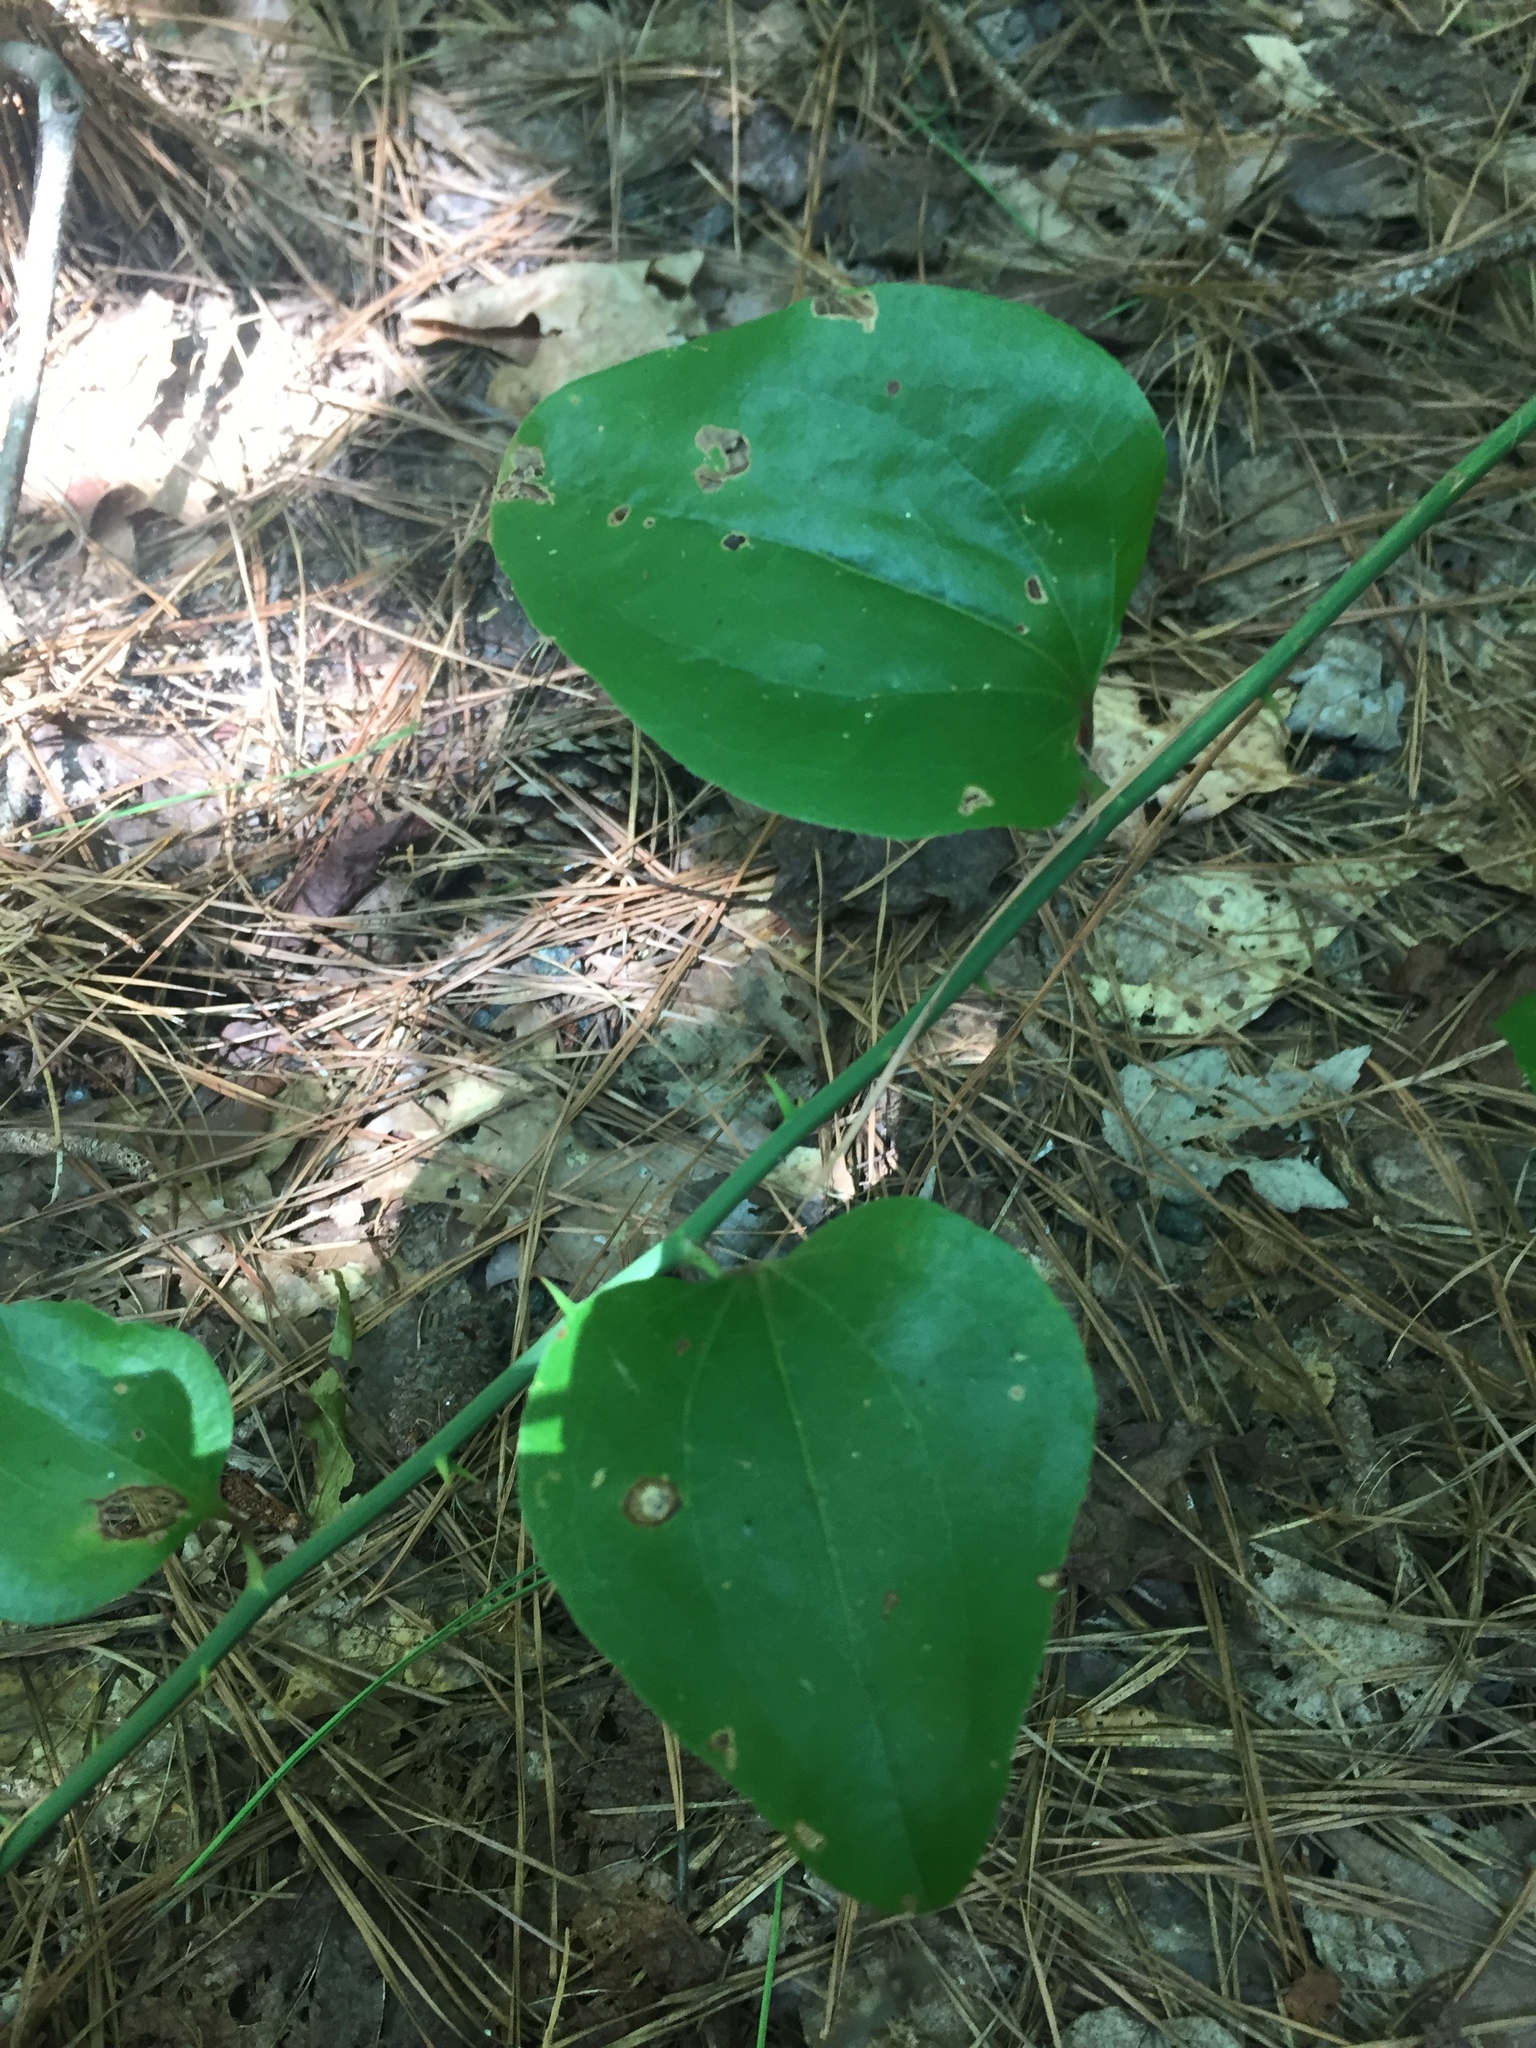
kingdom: Plantae
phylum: Tracheophyta
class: Liliopsida
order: Liliales
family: Smilacaceae
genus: Smilax
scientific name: Smilax rotundifolia
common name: Bullbriar
